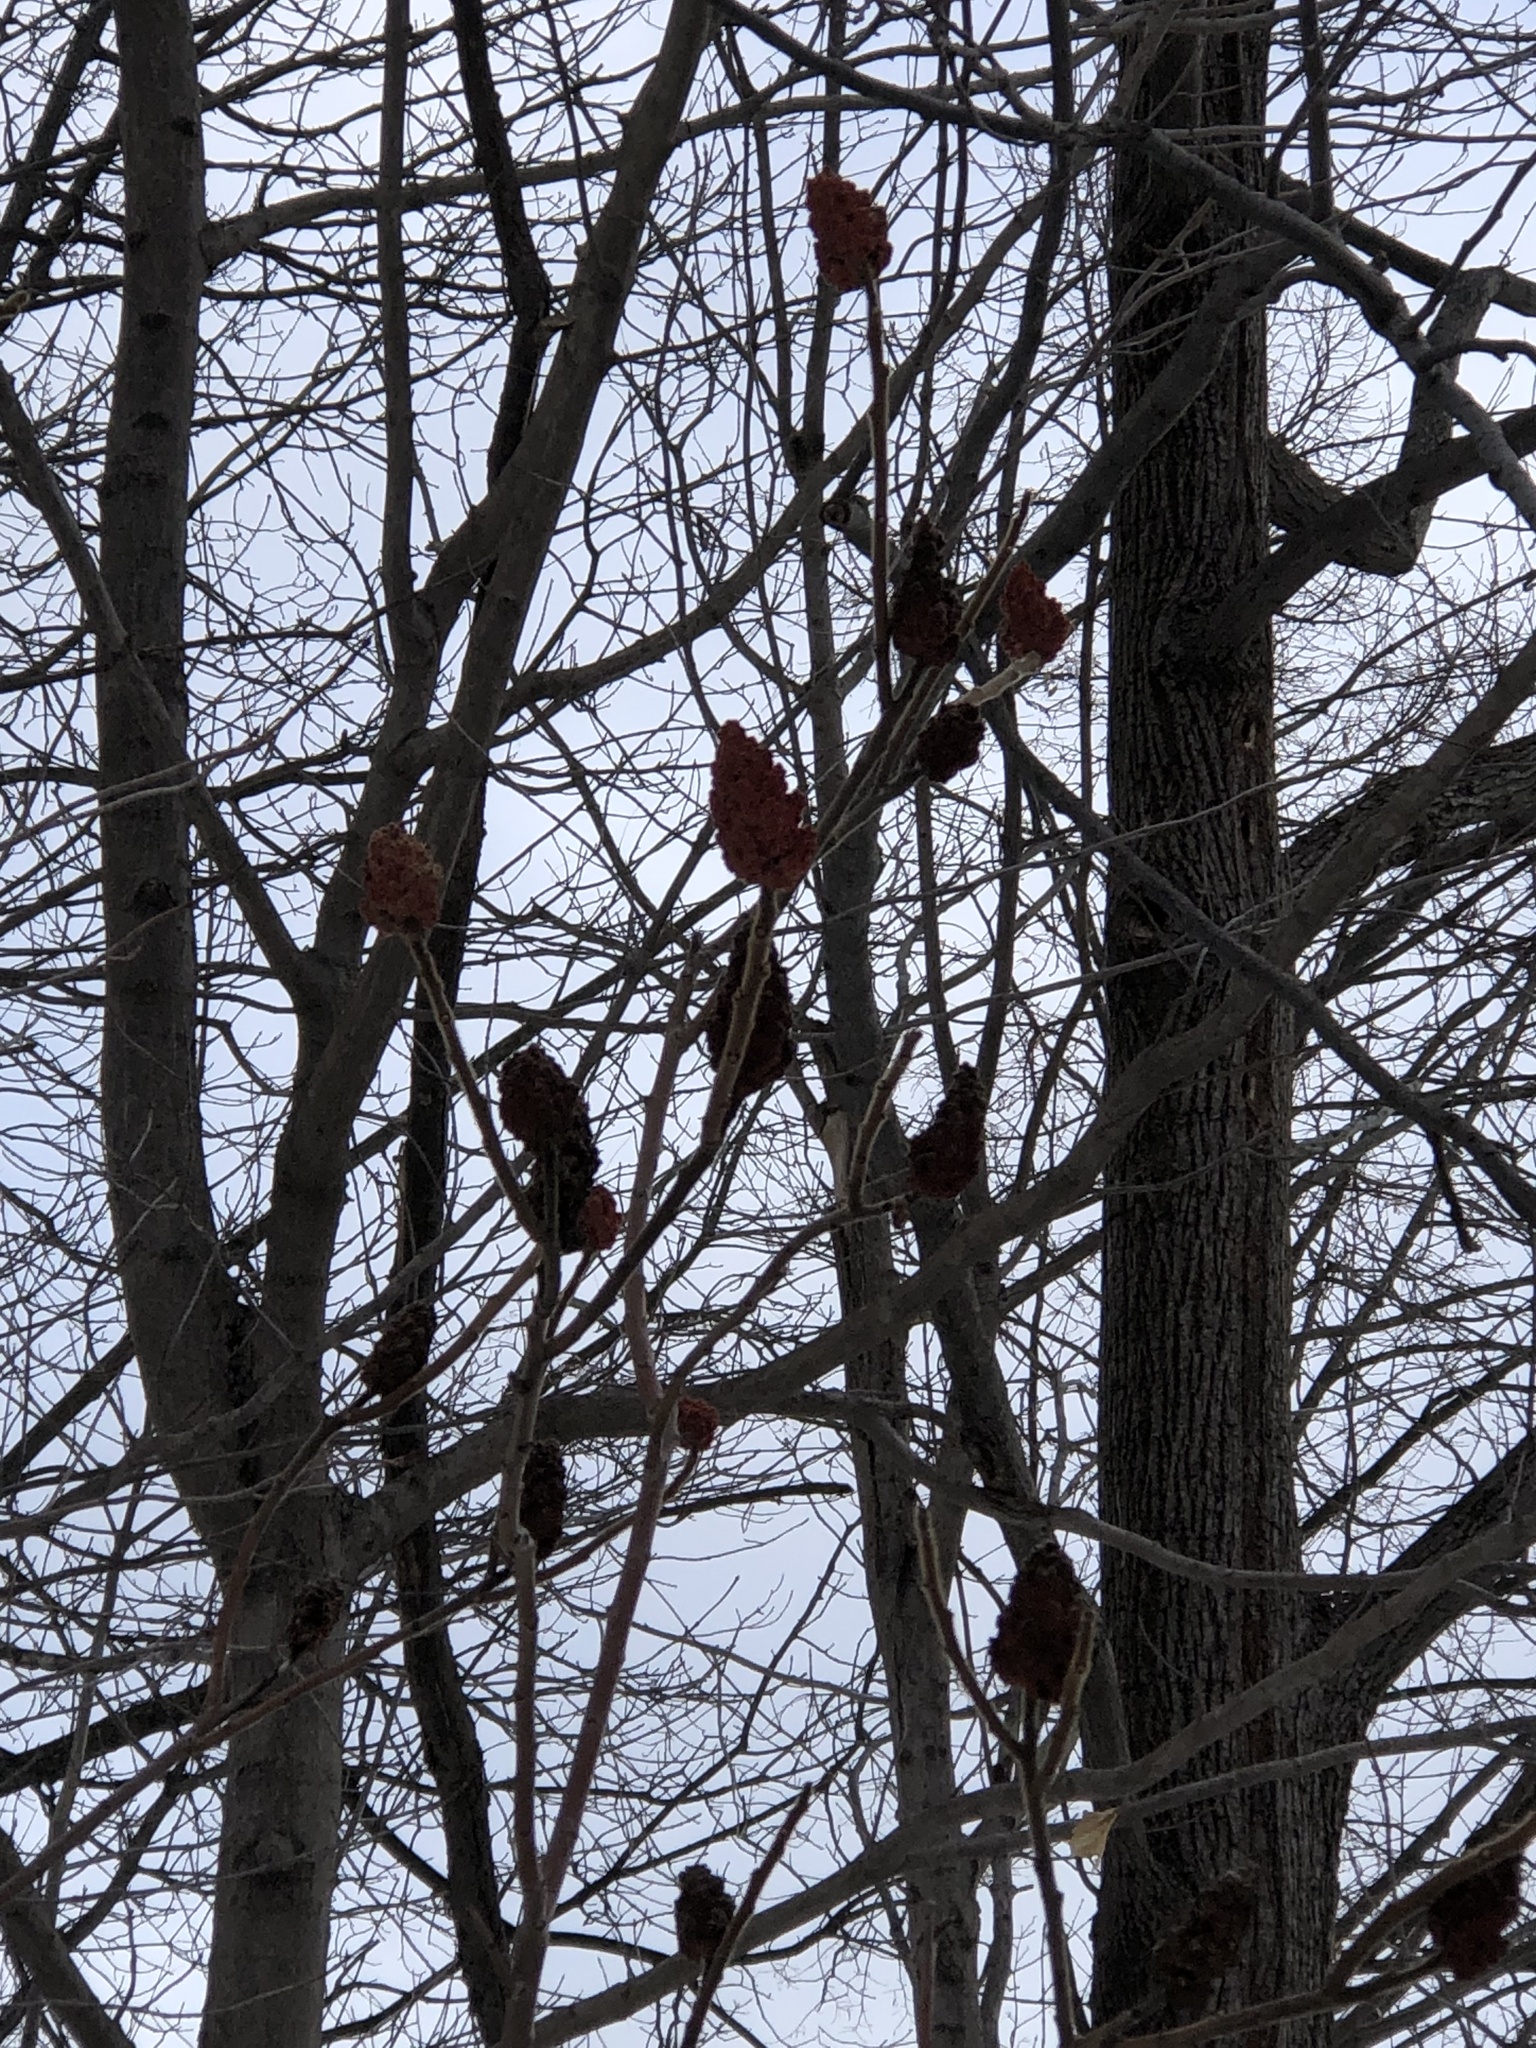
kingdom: Plantae
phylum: Tracheophyta
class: Magnoliopsida
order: Sapindales
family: Anacardiaceae
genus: Rhus
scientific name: Rhus typhina
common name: Staghorn sumac
